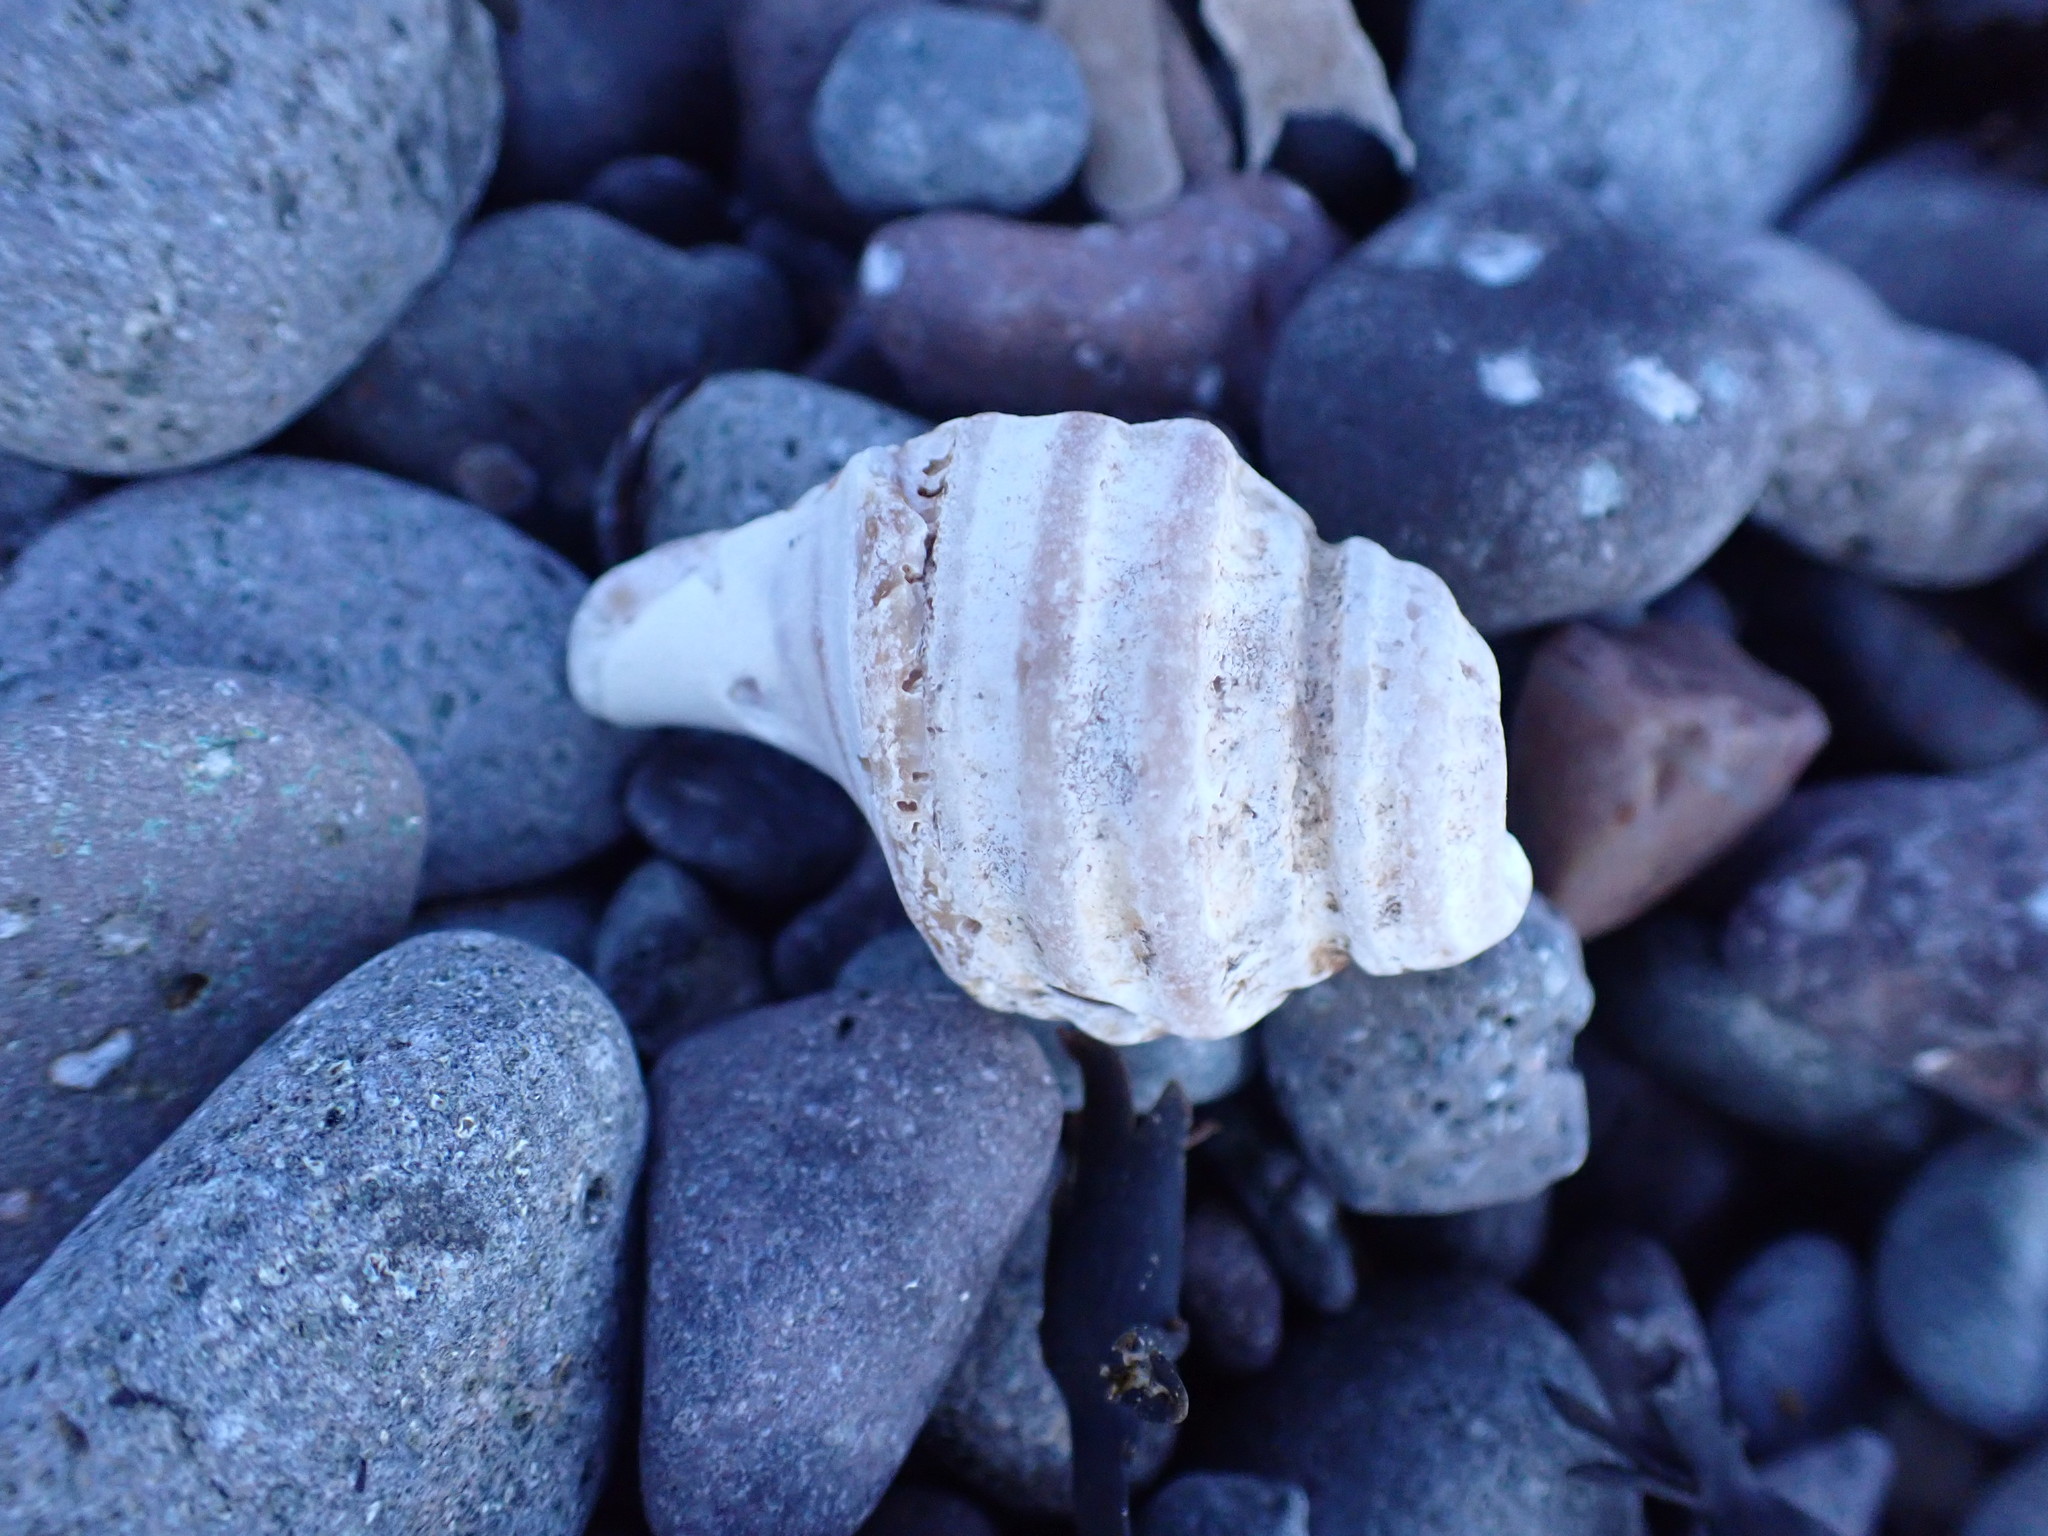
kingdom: Animalia
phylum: Mollusca
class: Gastropoda
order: Neogastropoda
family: Buccinidae
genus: Neptunea
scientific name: Neptunea decemcostata
